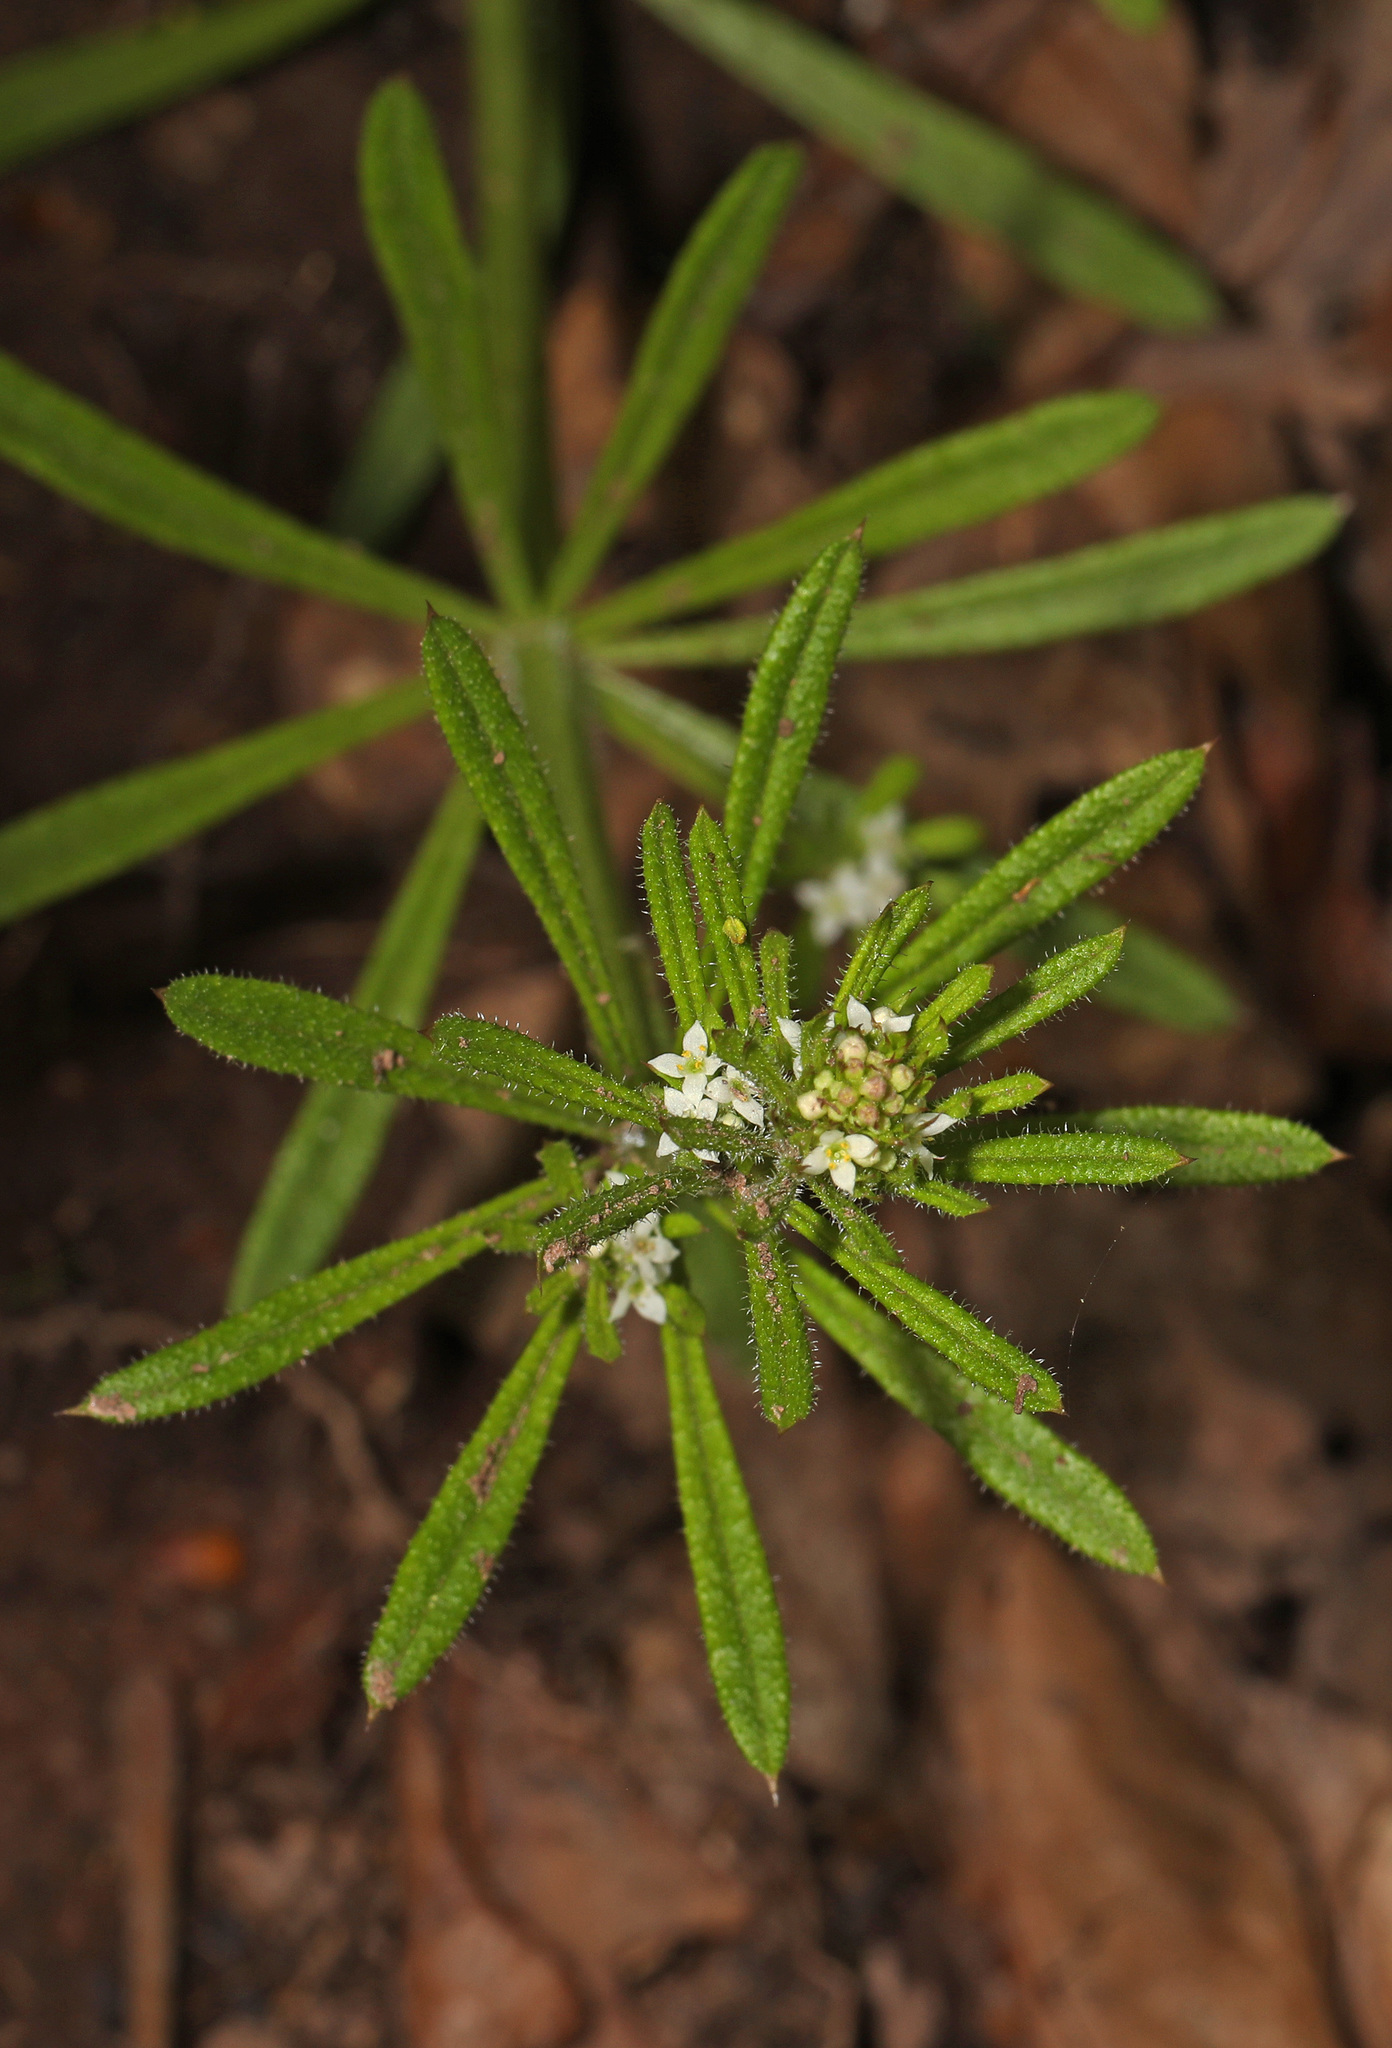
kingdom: Plantae
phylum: Tracheophyta
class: Magnoliopsida
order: Gentianales
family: Rubiaceae
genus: Galium
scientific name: Galium aparine
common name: Cleavers
